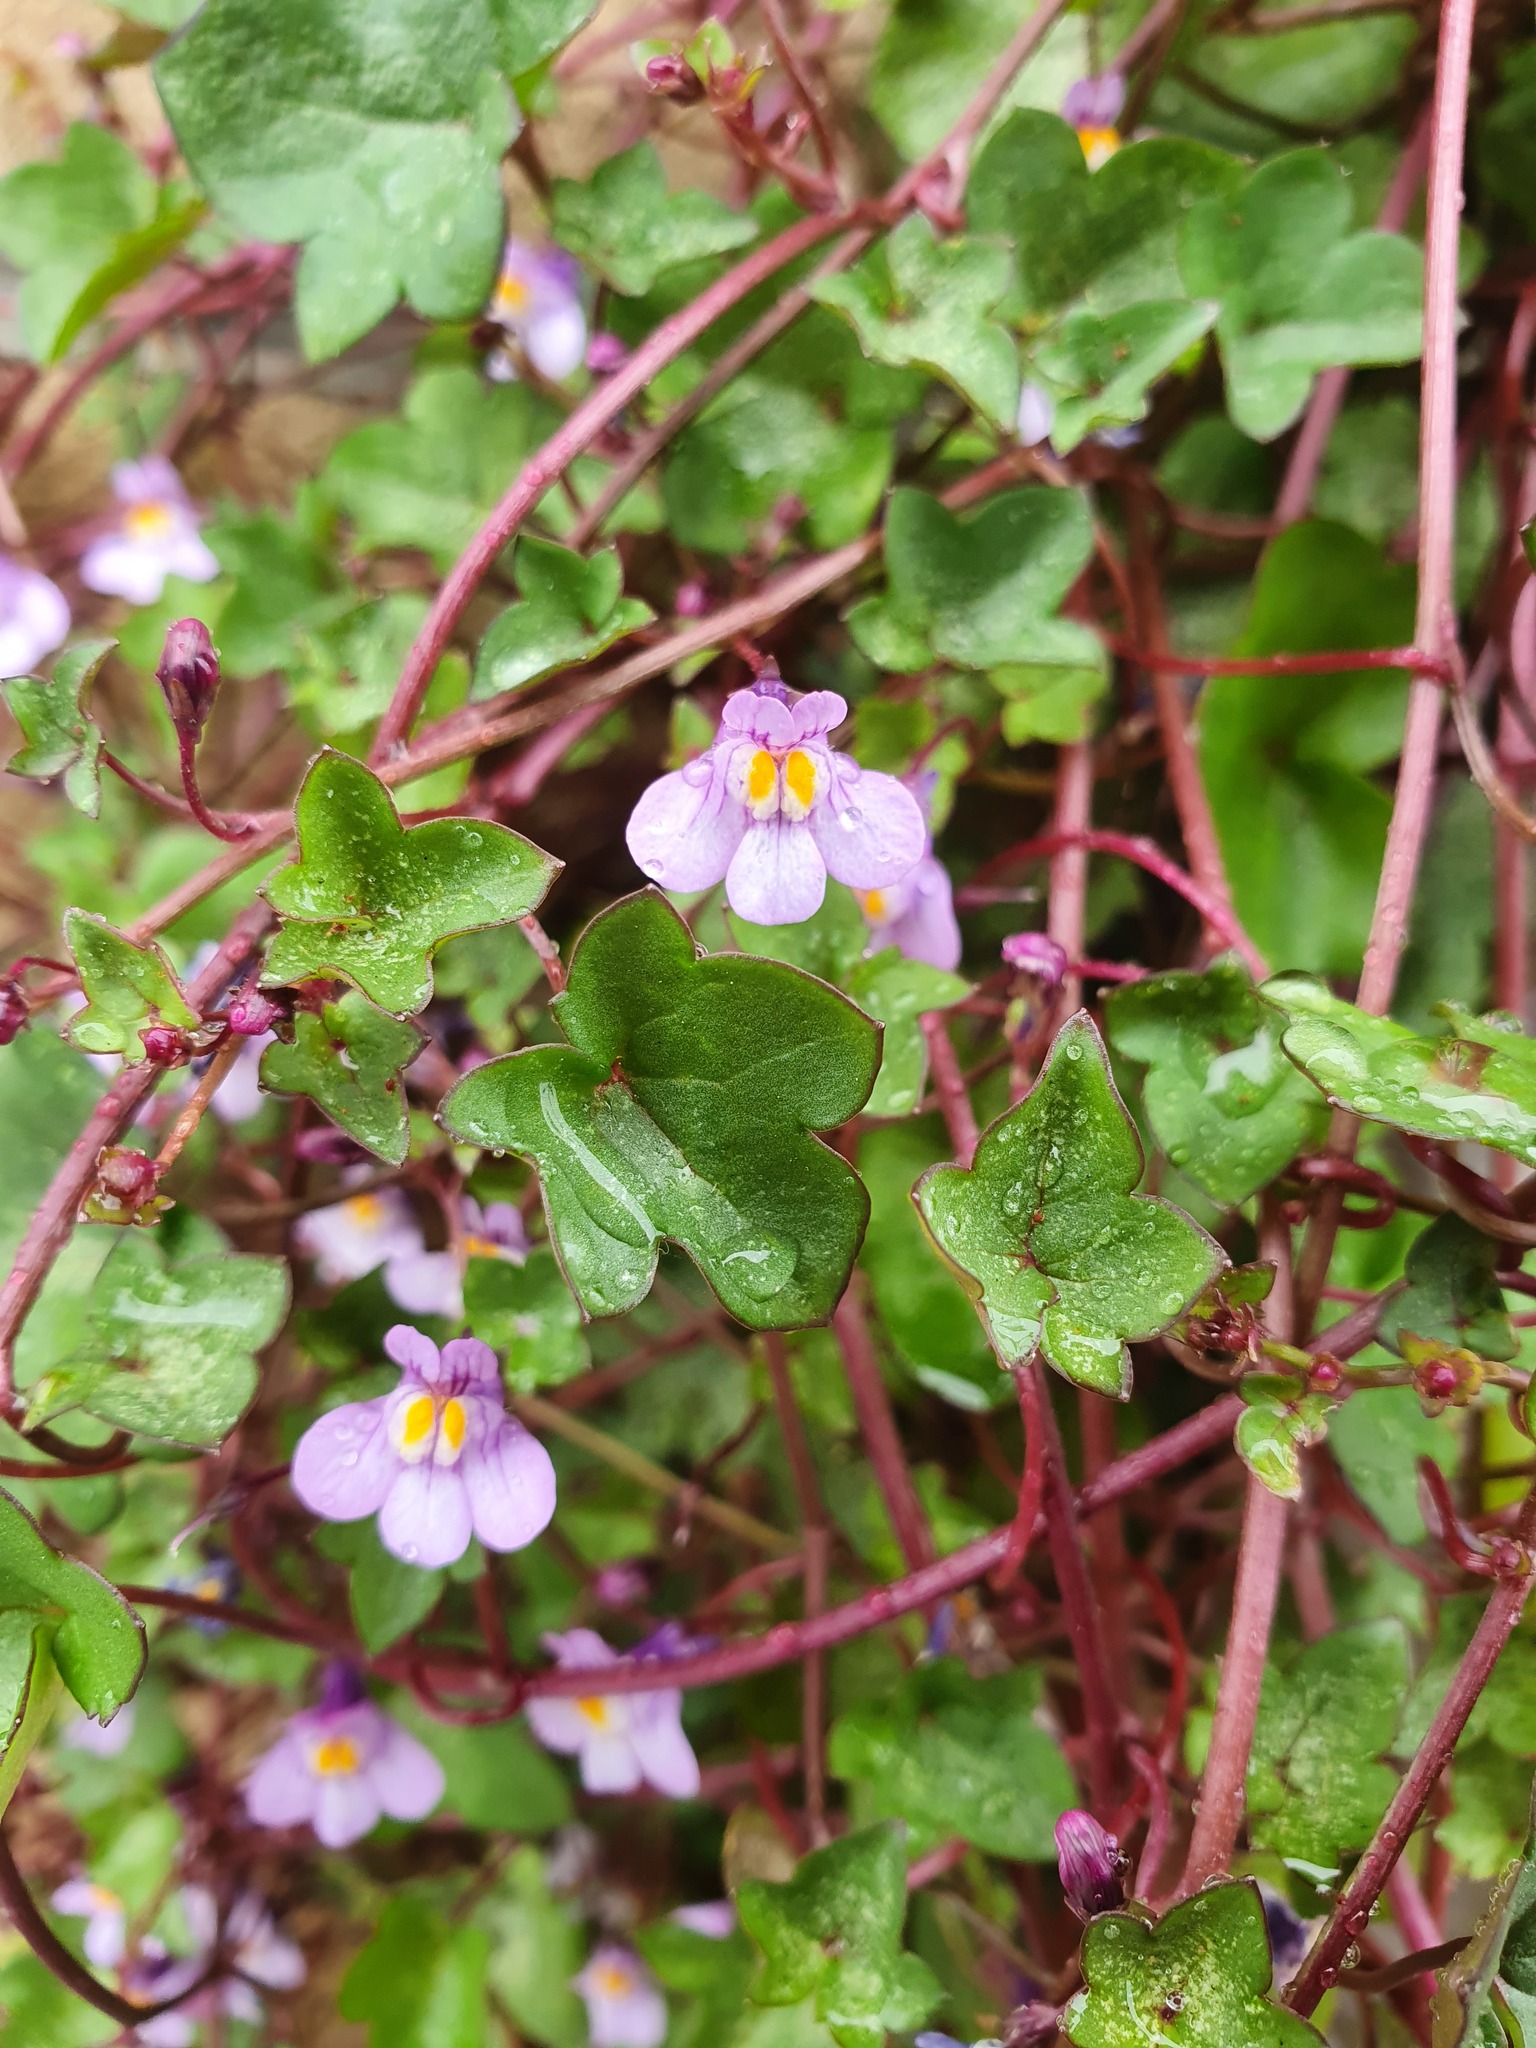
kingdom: Plantae
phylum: Tracheophyta
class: Magnoliopsida
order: Lamiales
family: Plantaginaceae
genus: Cymbalaria
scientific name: Cymbalaria muralis
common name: Ivy-leaved toadflax
